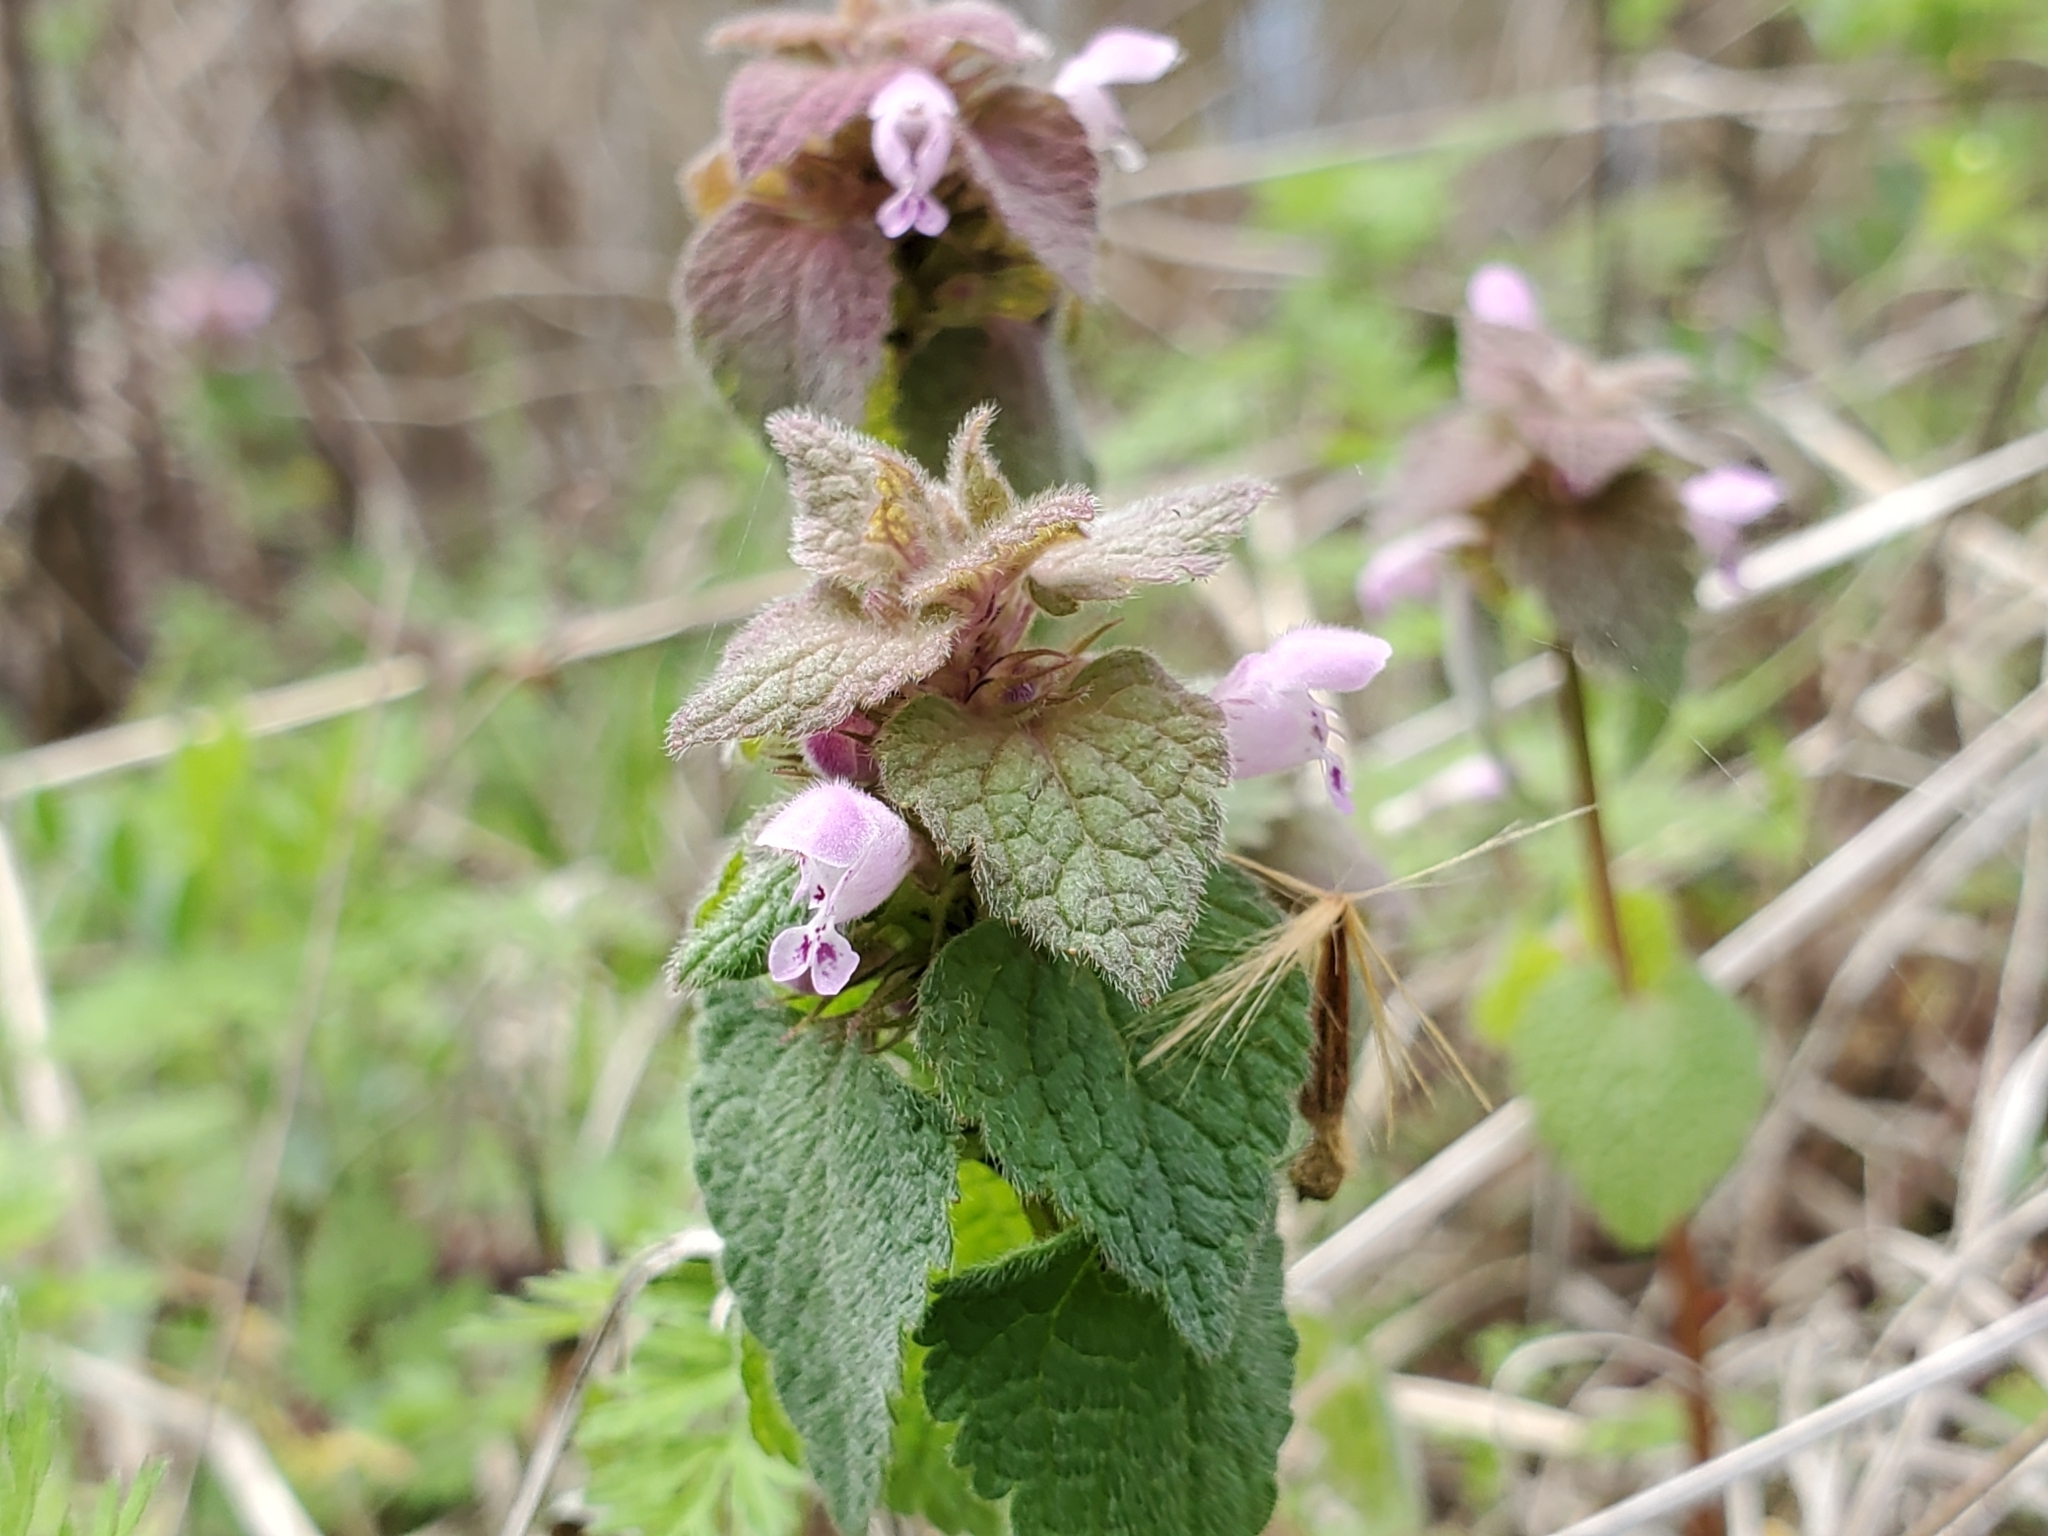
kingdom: Plantae
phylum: Tracheophyta
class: Magnoliopsida
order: Lamiales
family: Lamiaceae
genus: Lamium
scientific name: Lamium purpureum
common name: Red dead-nettle
